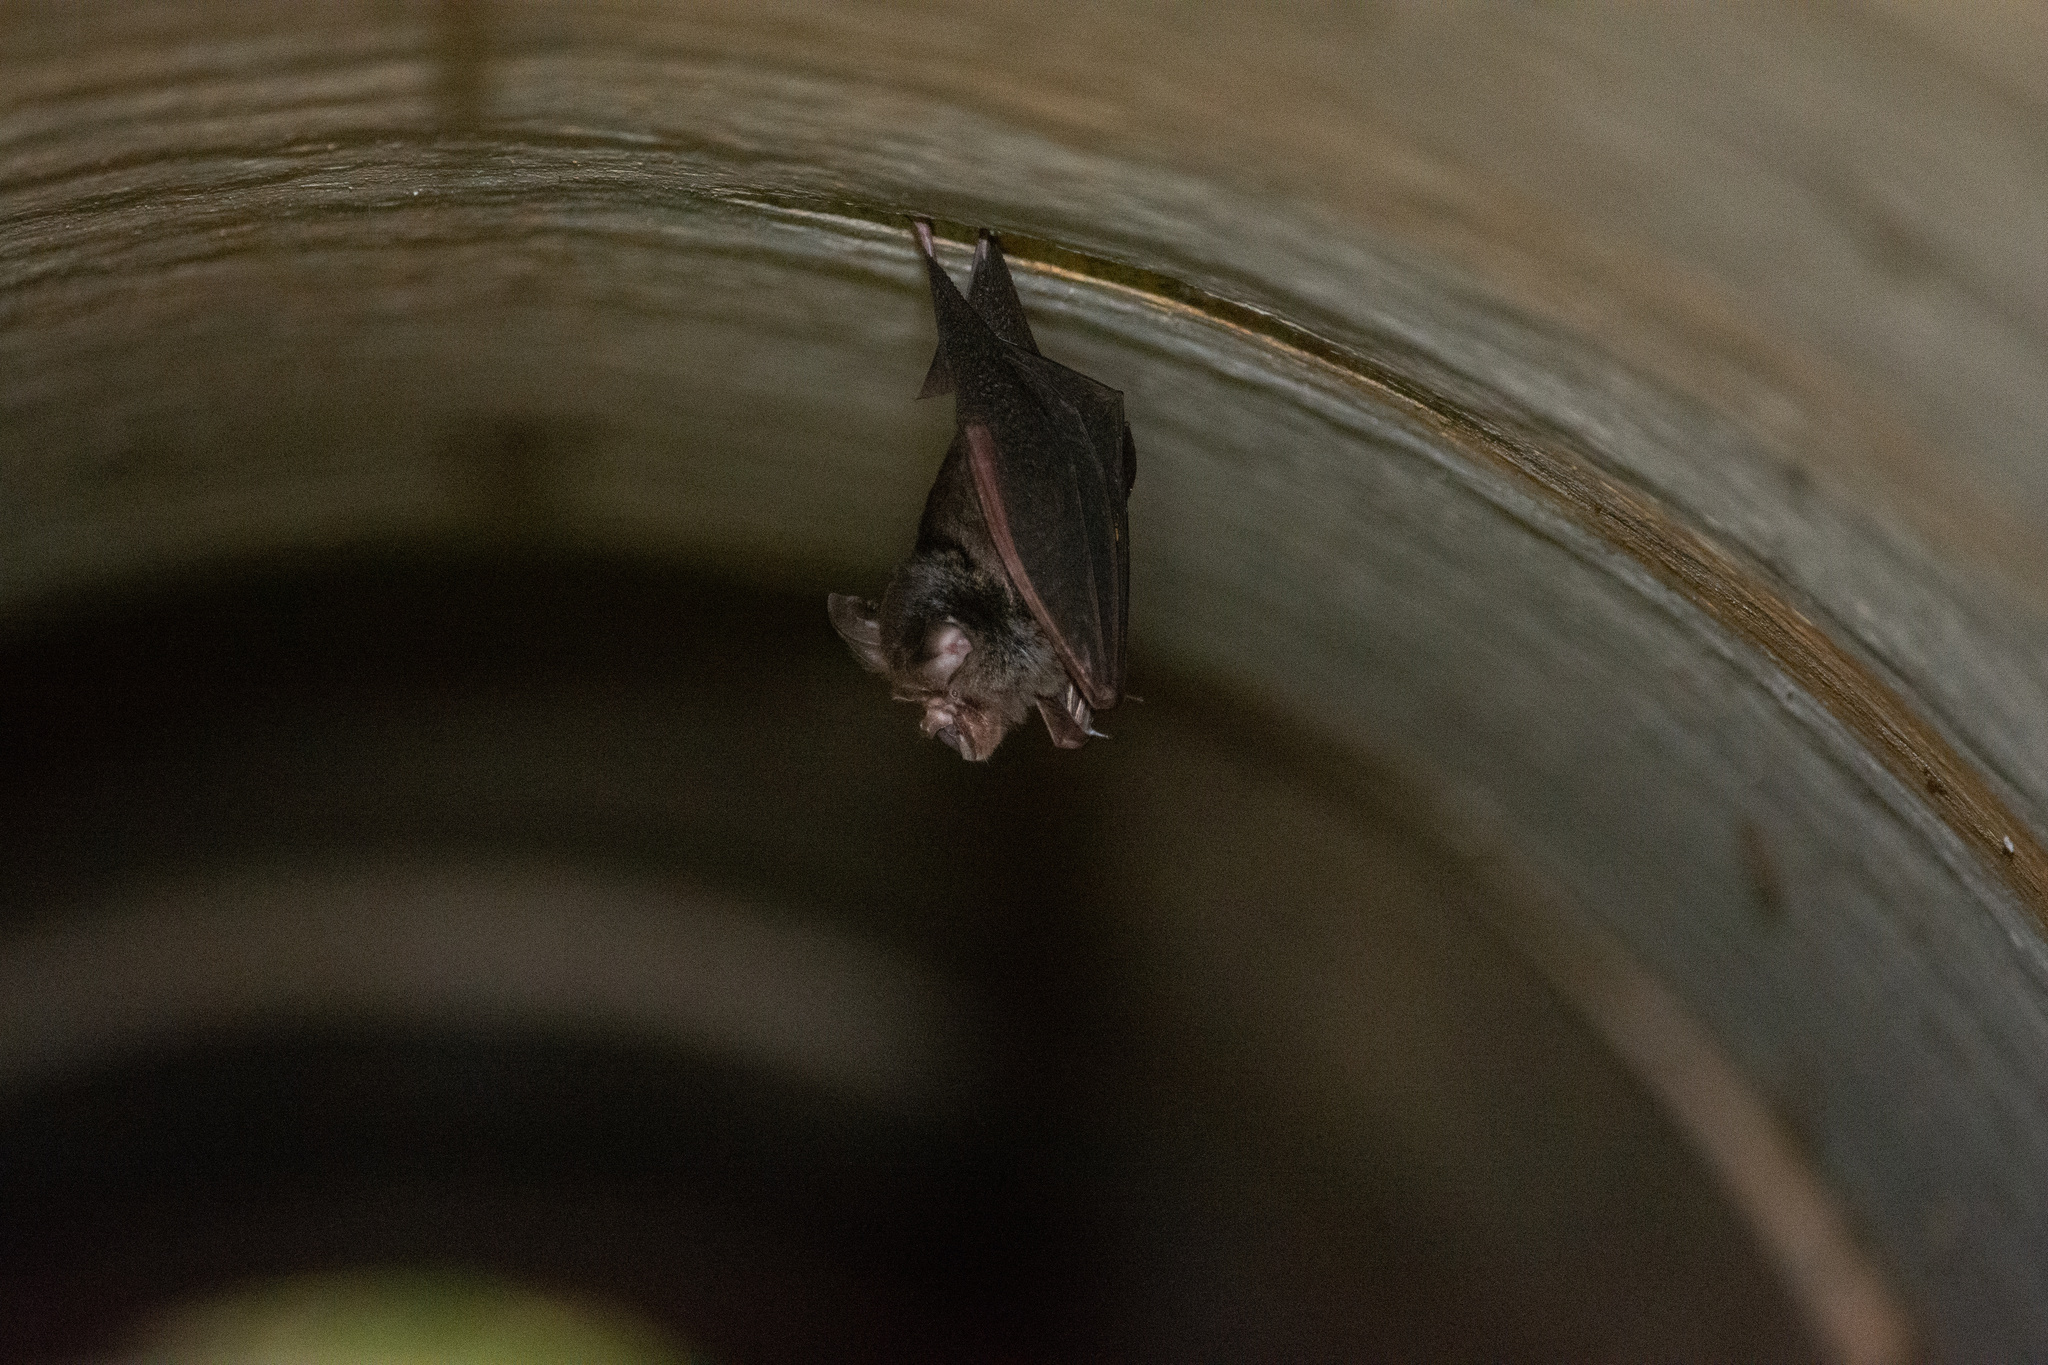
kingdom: Animalia
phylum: Chordata
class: Mammalia
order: Chiroptera
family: Rhinolophidae
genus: Rhinolophus
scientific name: Rhinolophus megaphyllus
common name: Smaller horseshoe bat
